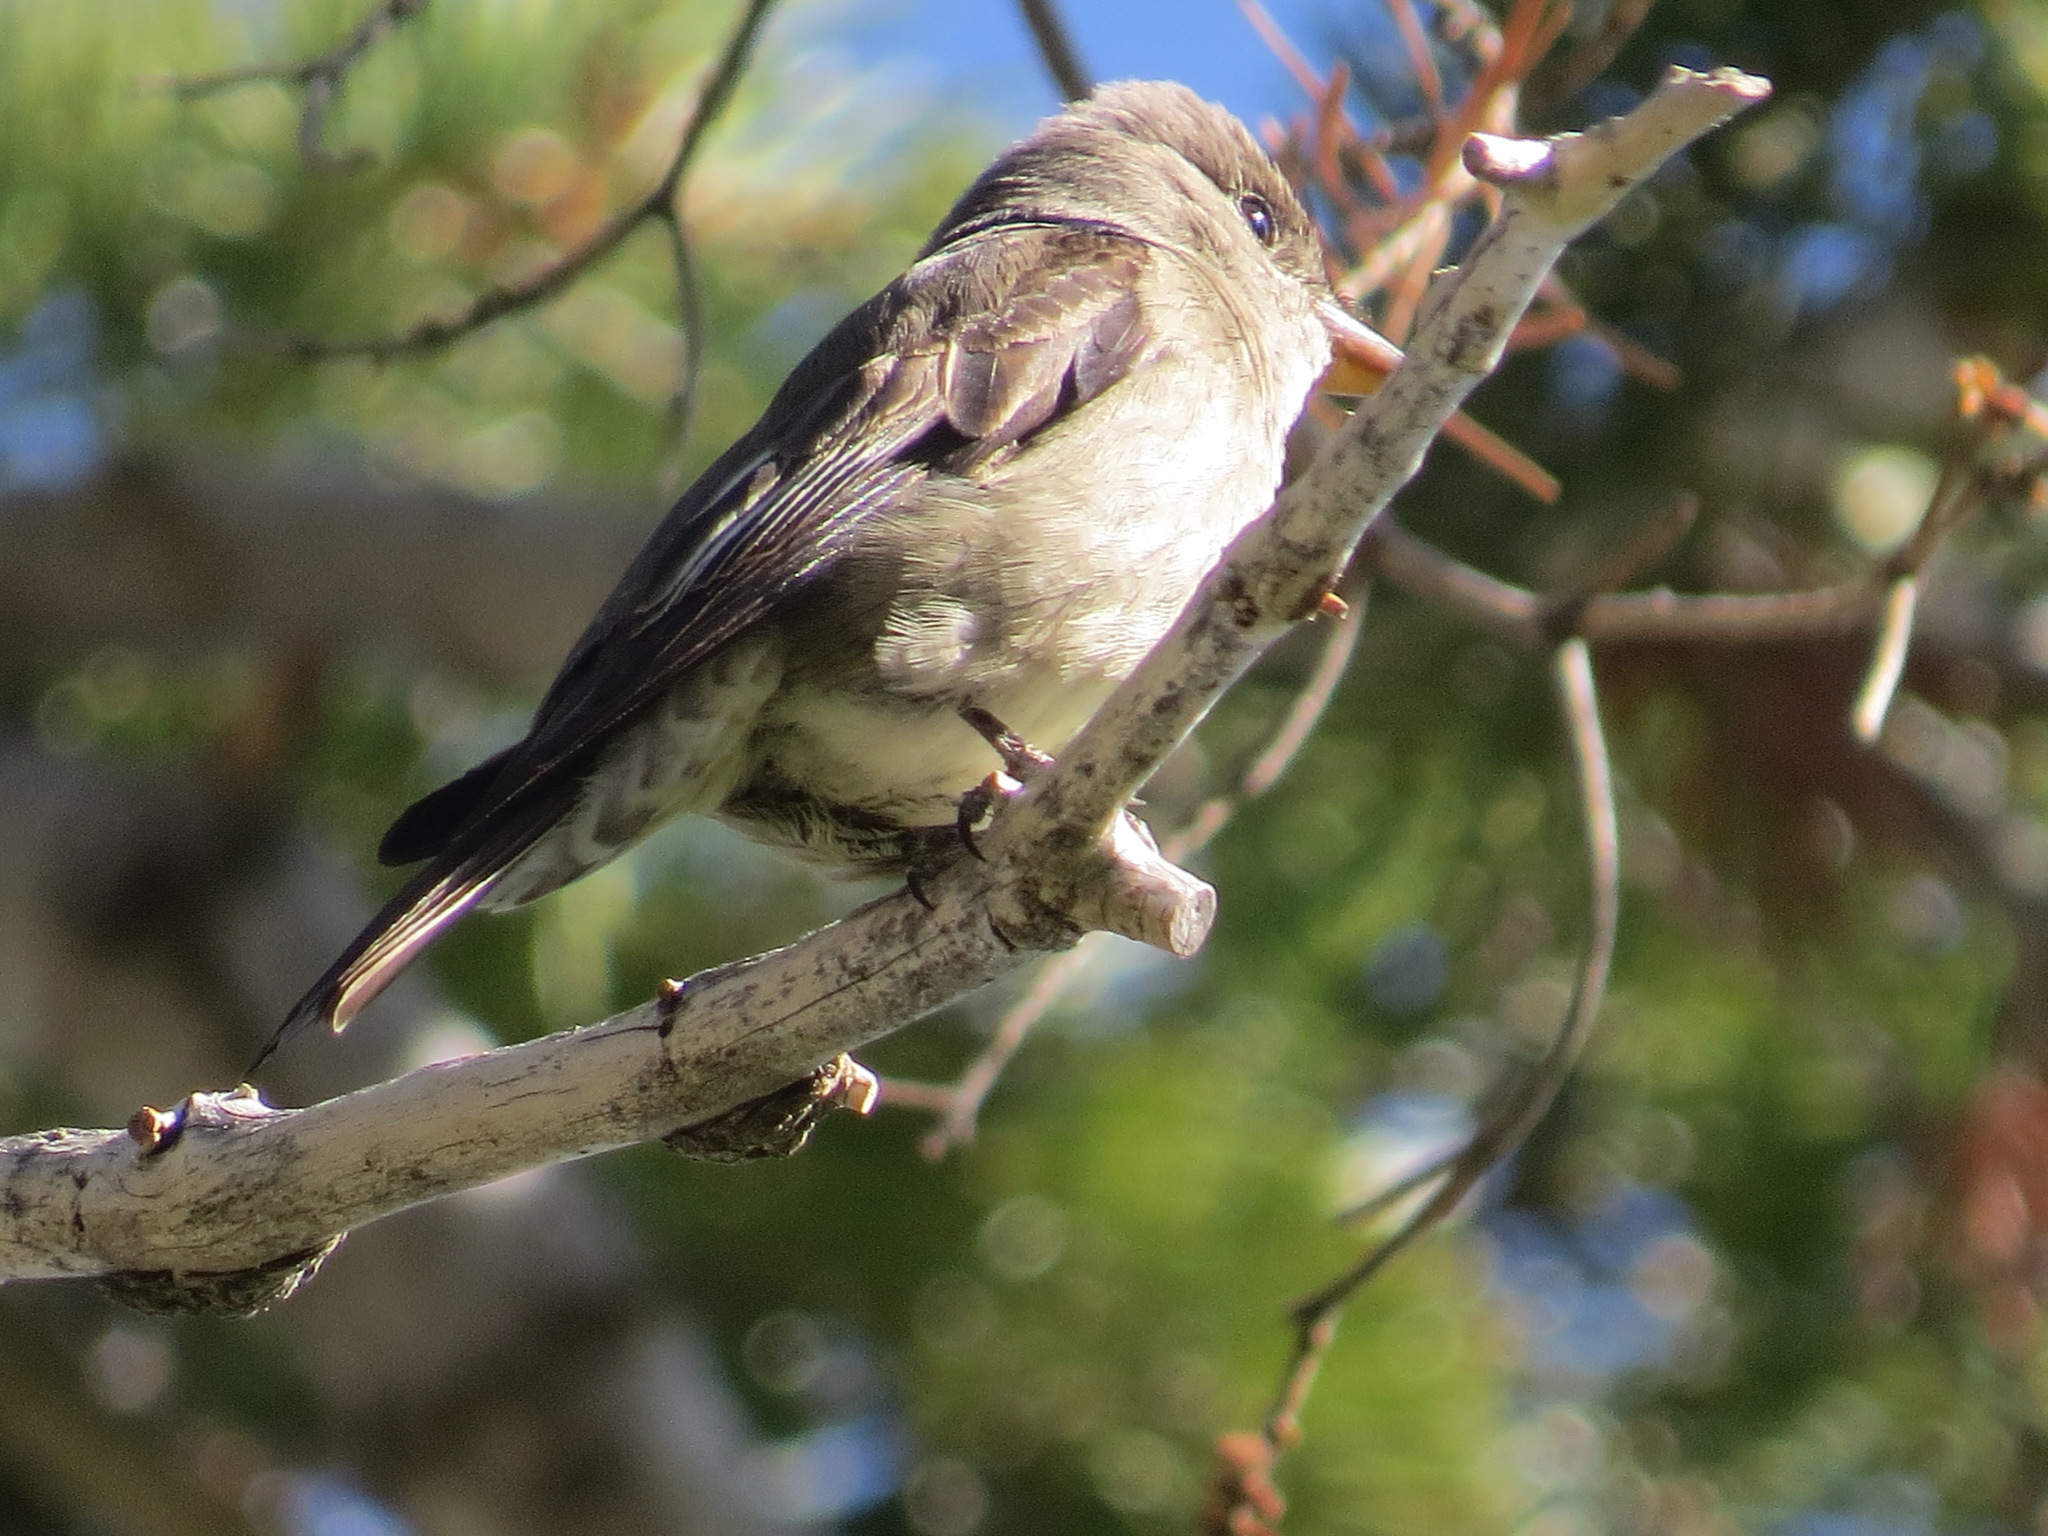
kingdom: Animalia
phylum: Chordata
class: Aves
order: Passeriformes
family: Tyrannidae
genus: Contopus
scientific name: Contopus cooperi
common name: Olive-sided flycatcher
